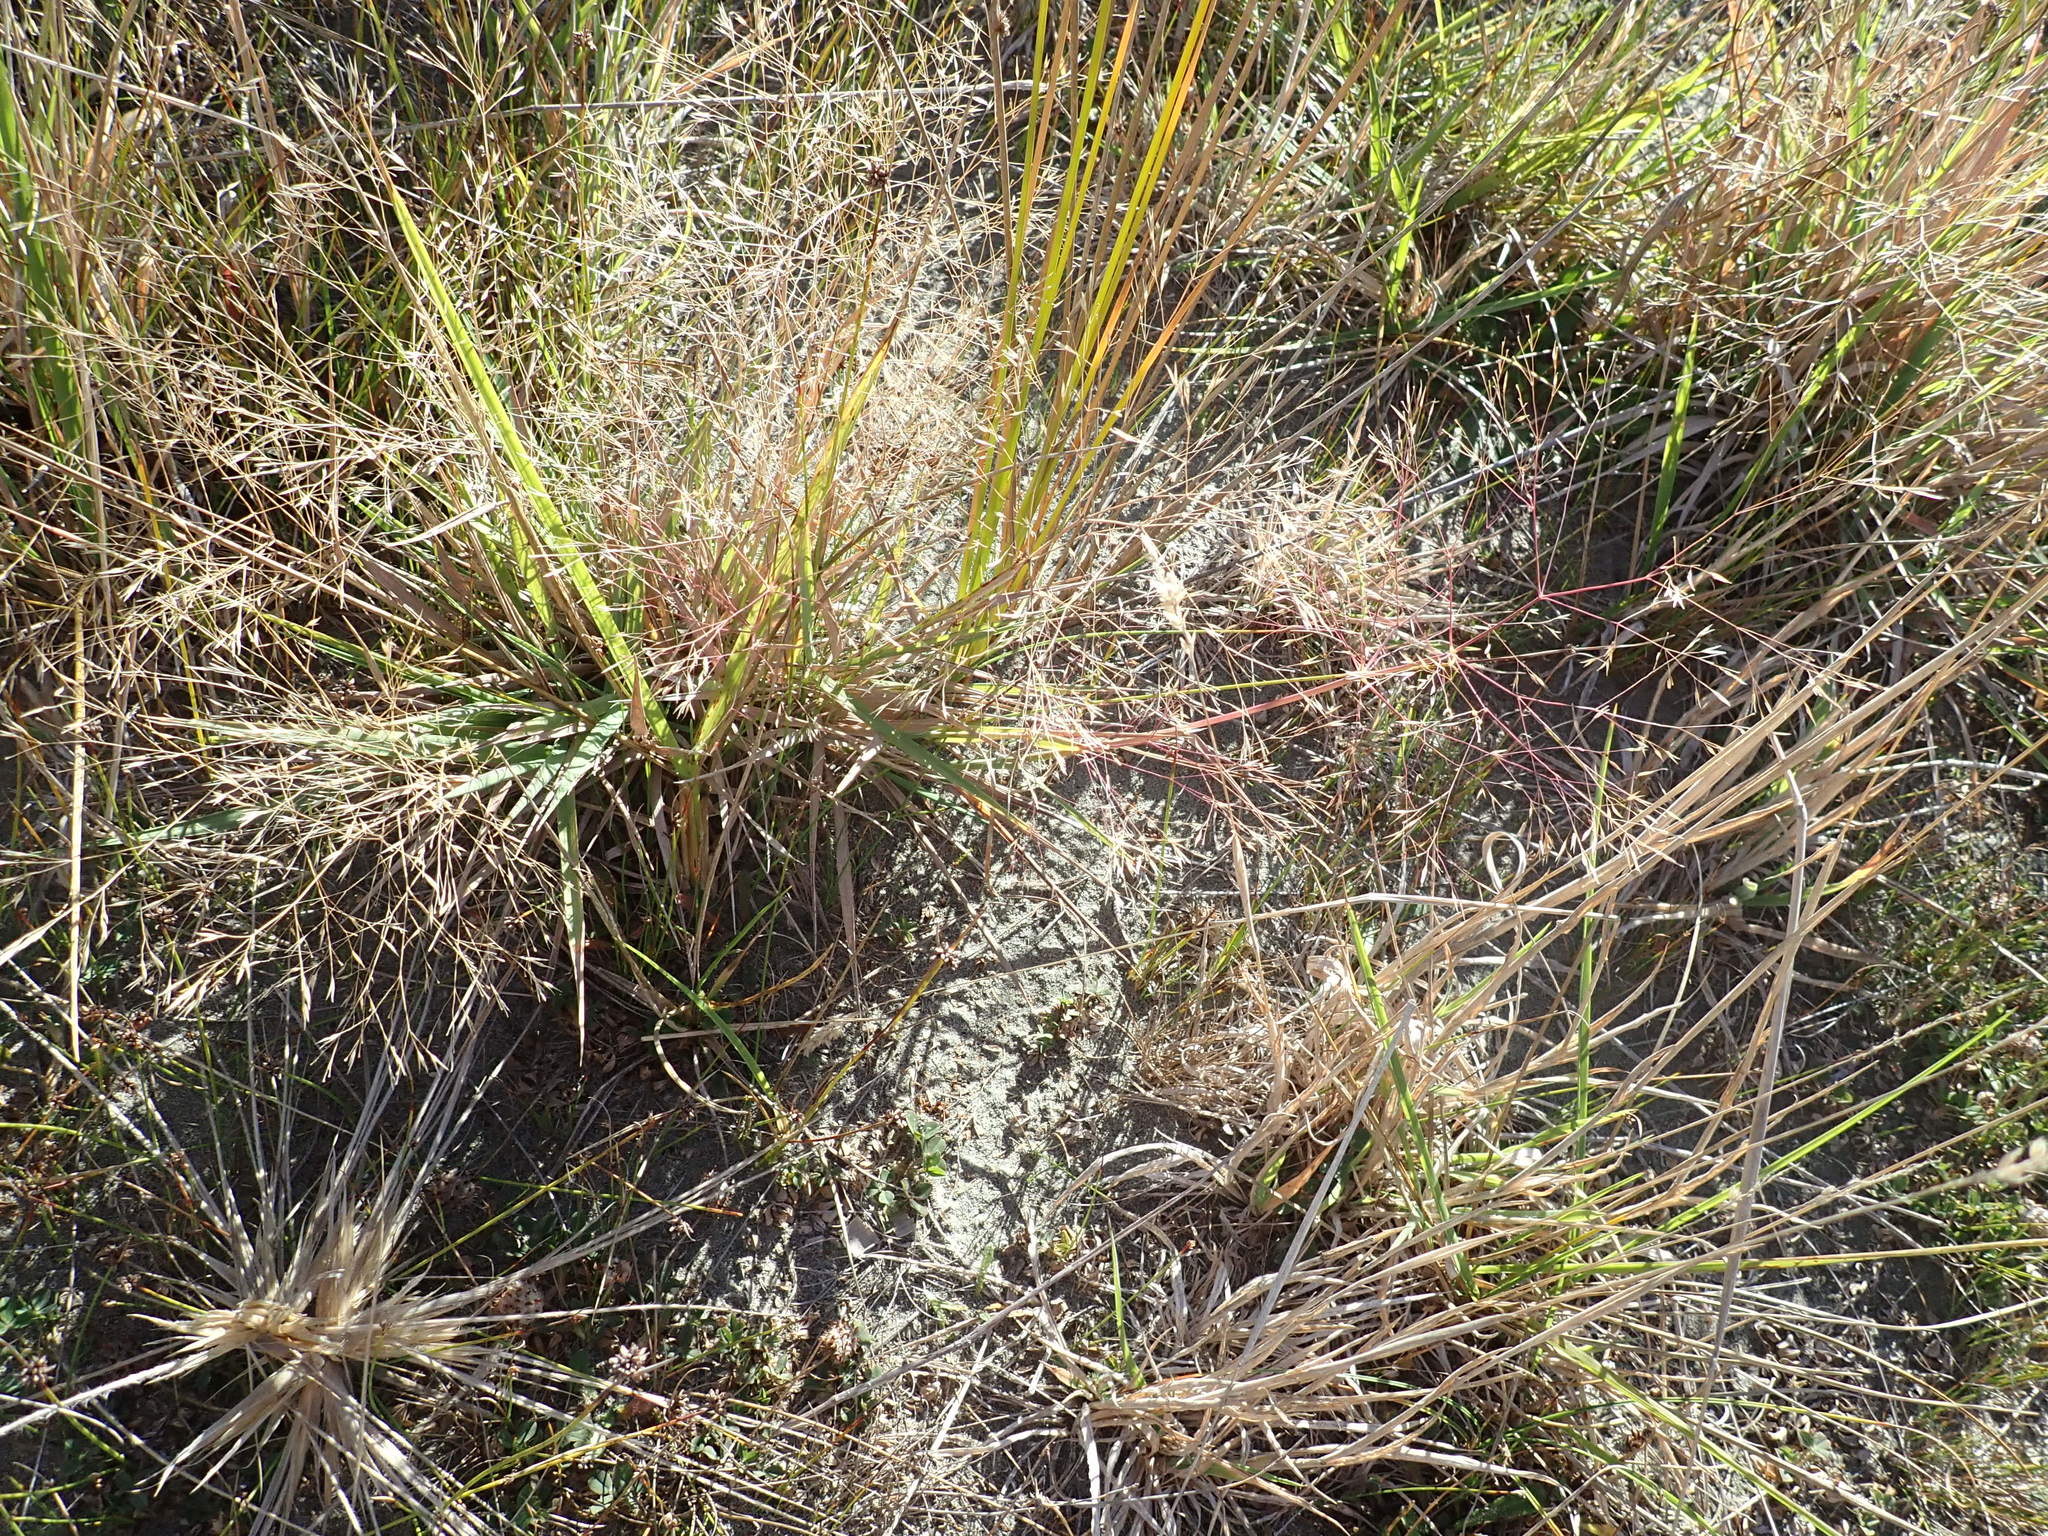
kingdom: Plantae
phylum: Tracheophyta
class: Liliopsida
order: Poales
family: Poaceae
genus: Lachnagrostis
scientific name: Lachnagrostis billardierei
